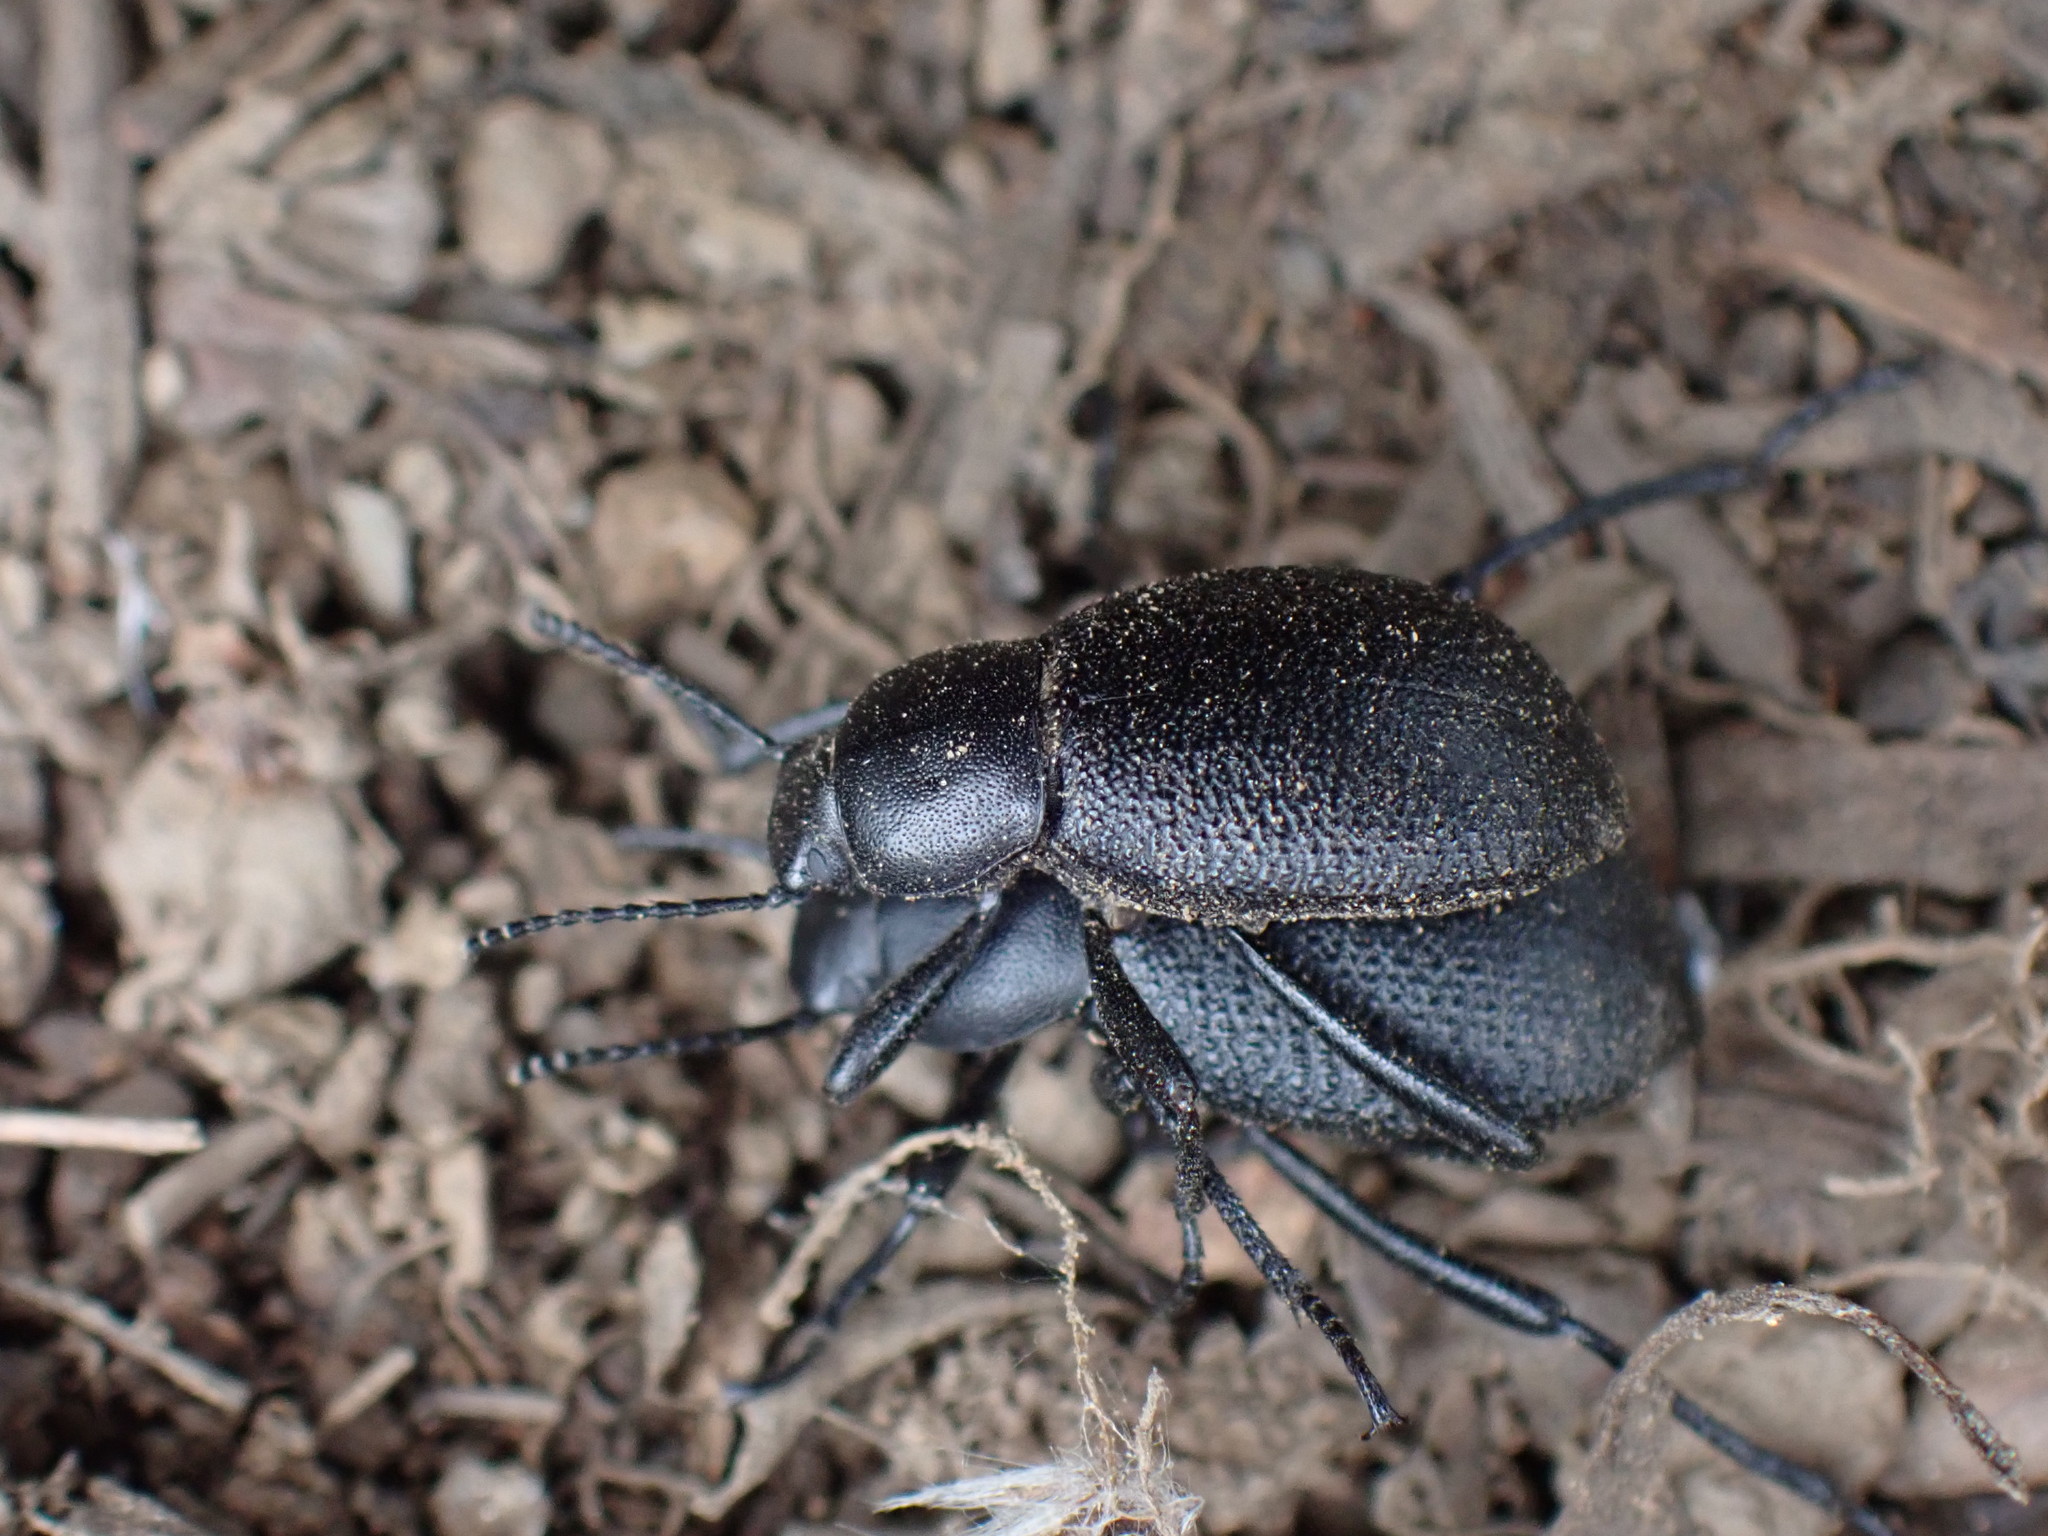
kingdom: Animalia
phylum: Arthropoda
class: Insecta
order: Coleoptera
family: Tenebrionidae
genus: Eleodes
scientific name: Eleodes granulata
